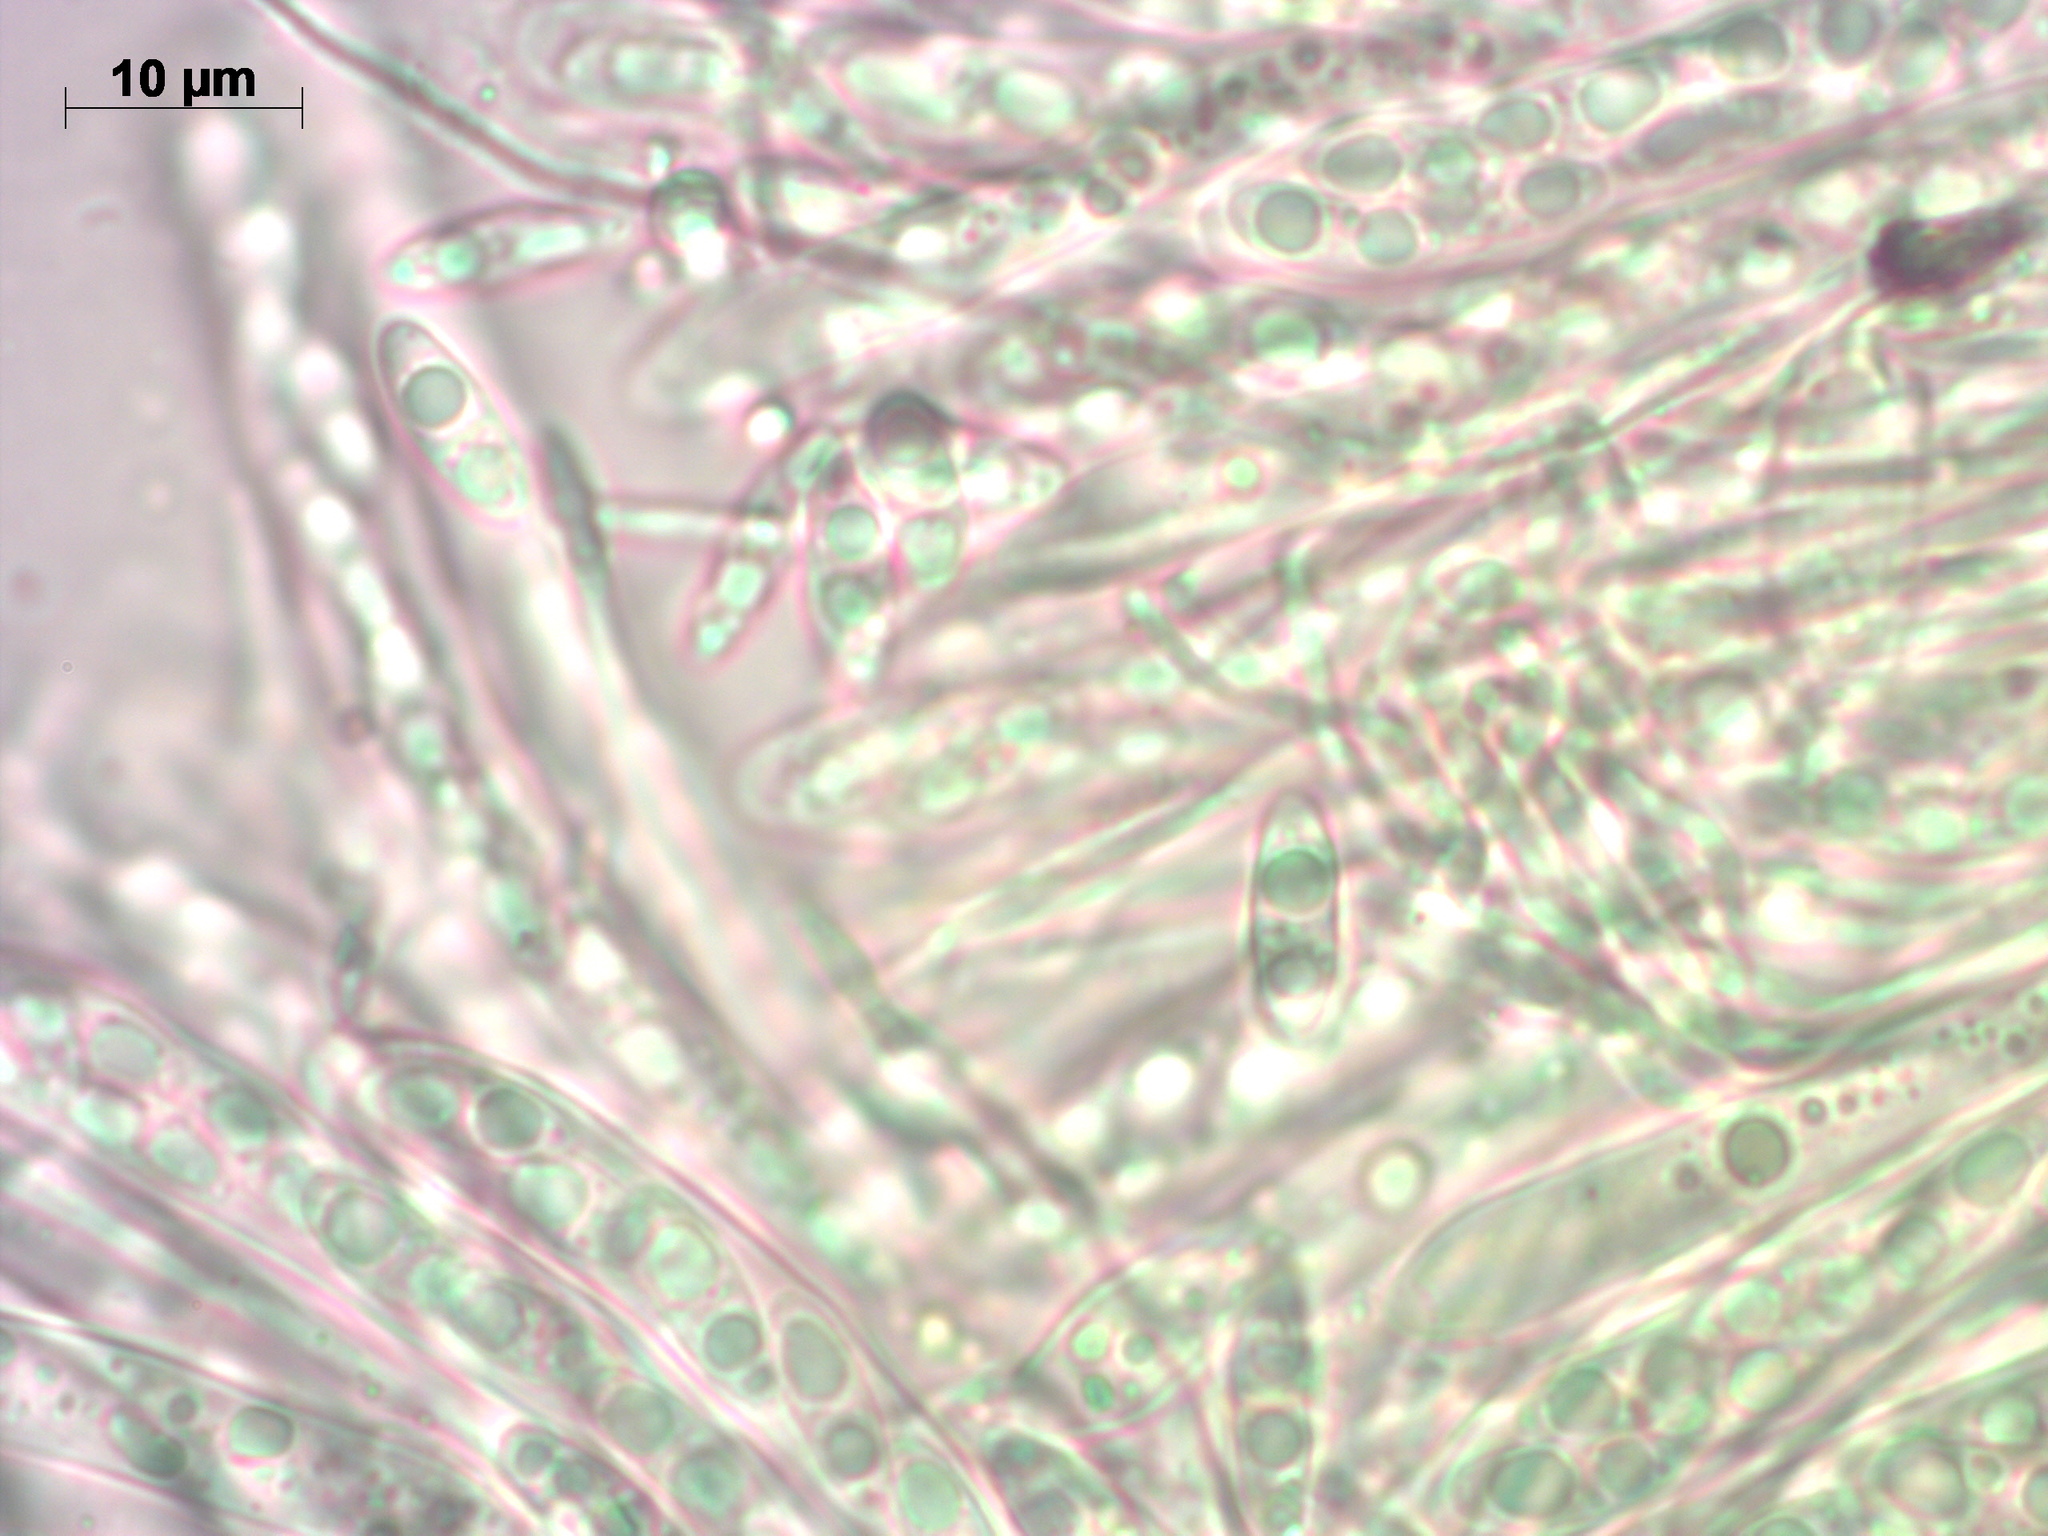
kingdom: Fungi
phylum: Ascomycota
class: Leotiomycetes
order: Helotiales
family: Pezizellaceae
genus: Calycina
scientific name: Calycina citrina
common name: Yellow fairy cups
